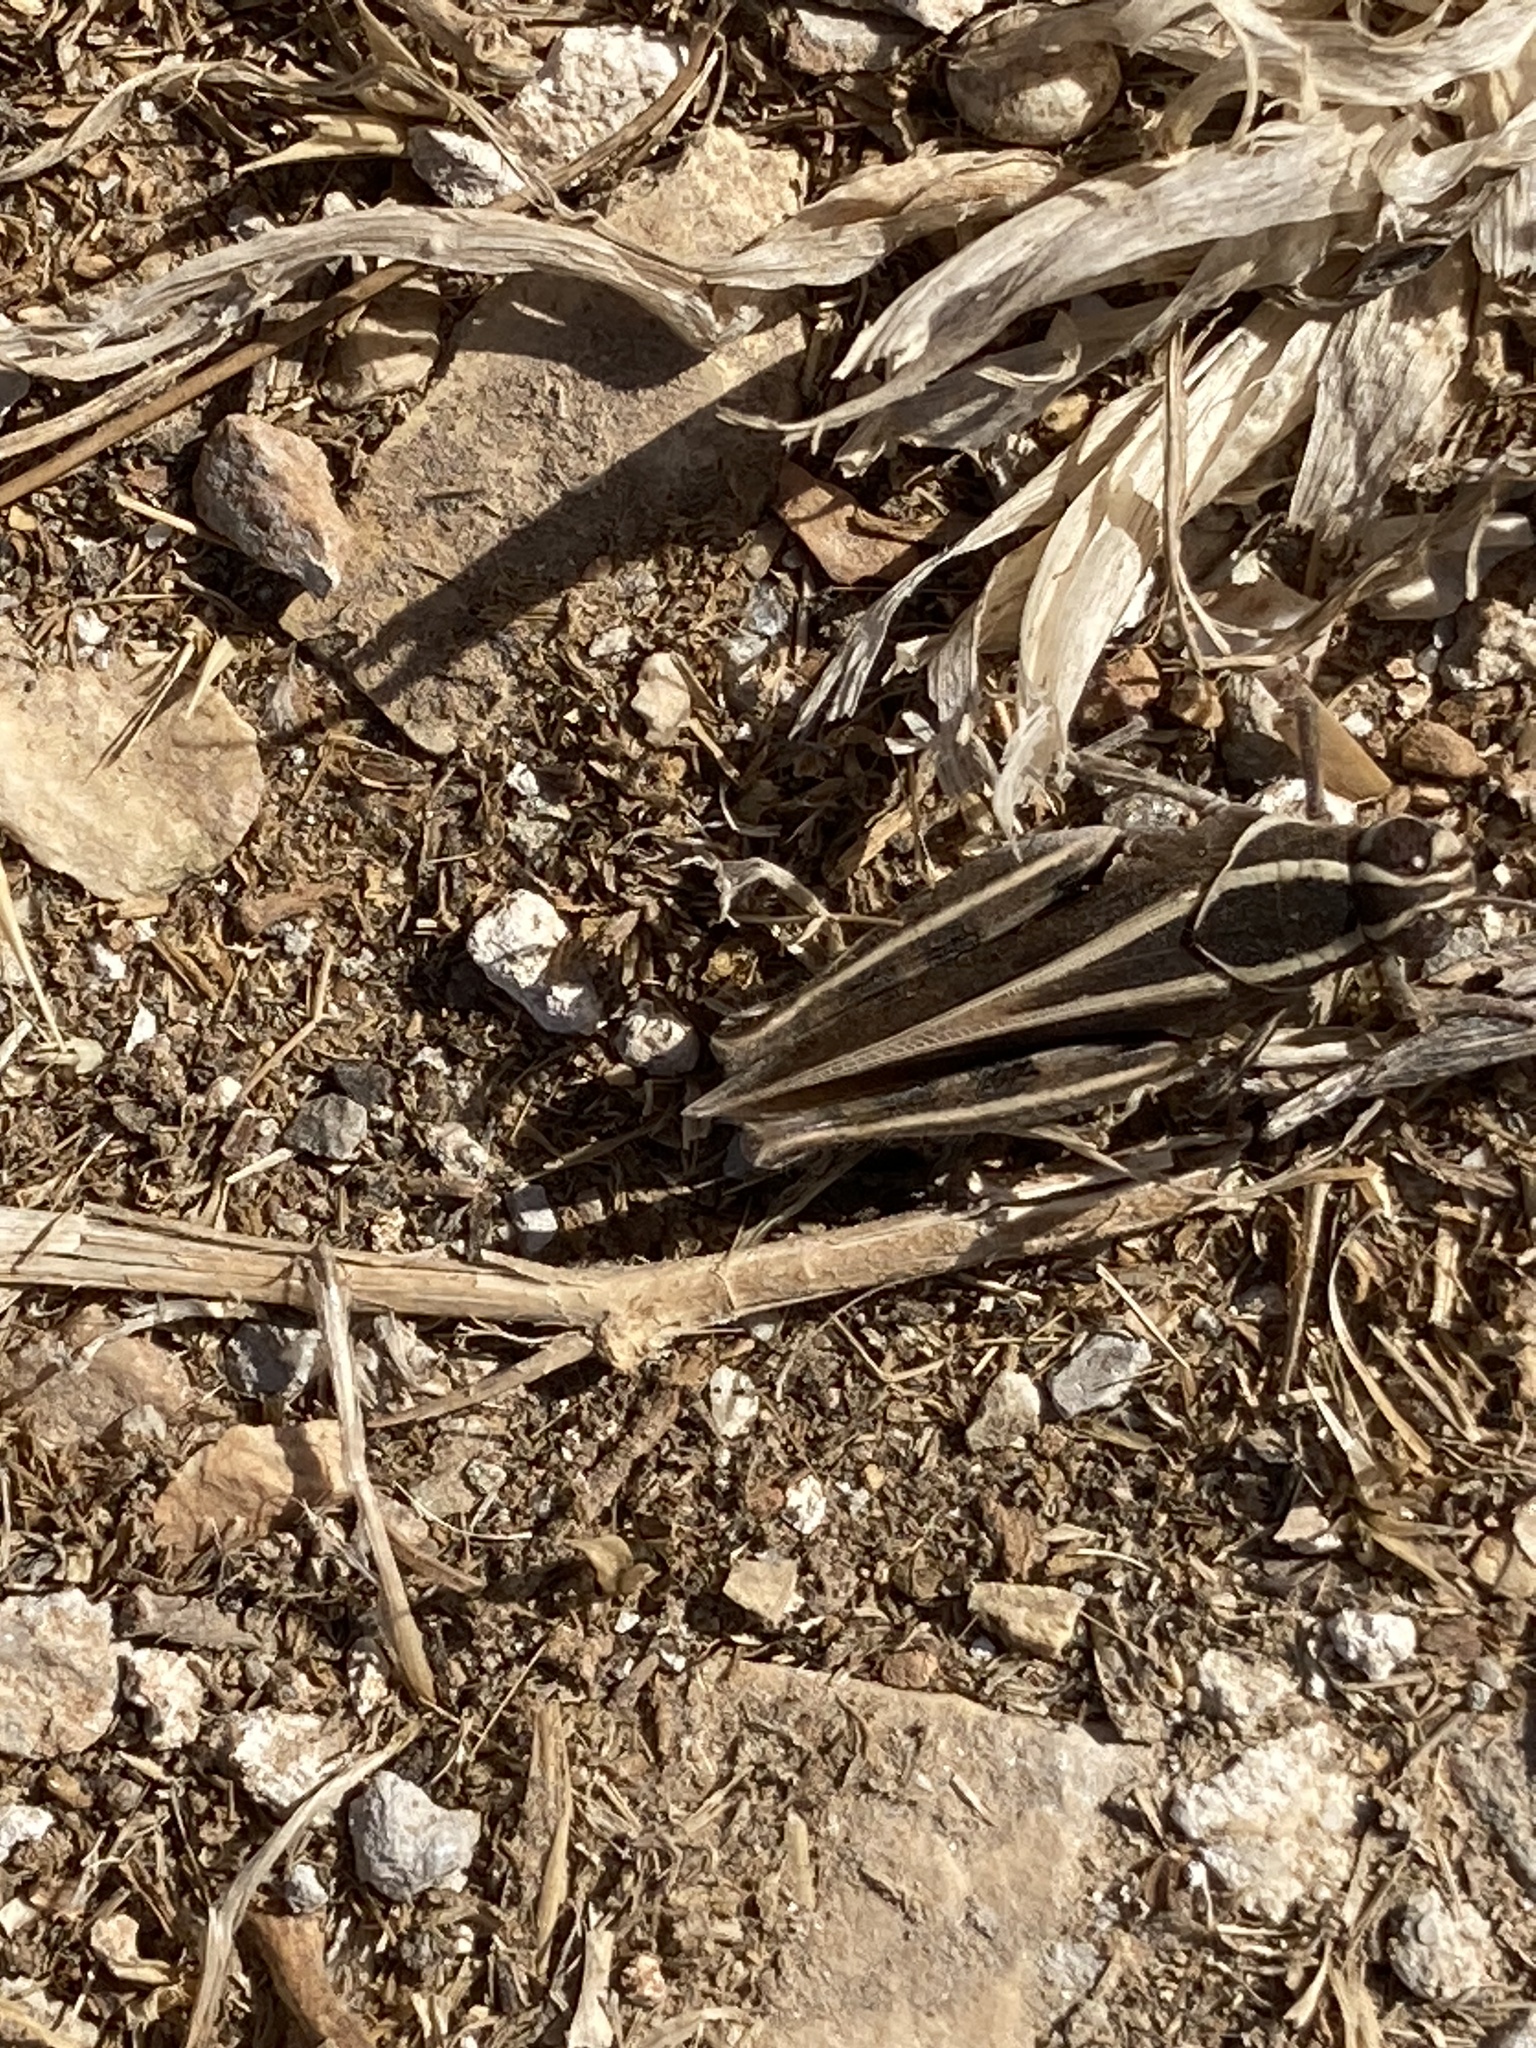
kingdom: Animalia
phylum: Arthropoda
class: Insecta
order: Orthoptera
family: Acrididae
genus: Calliptamus
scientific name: Calliptamus
